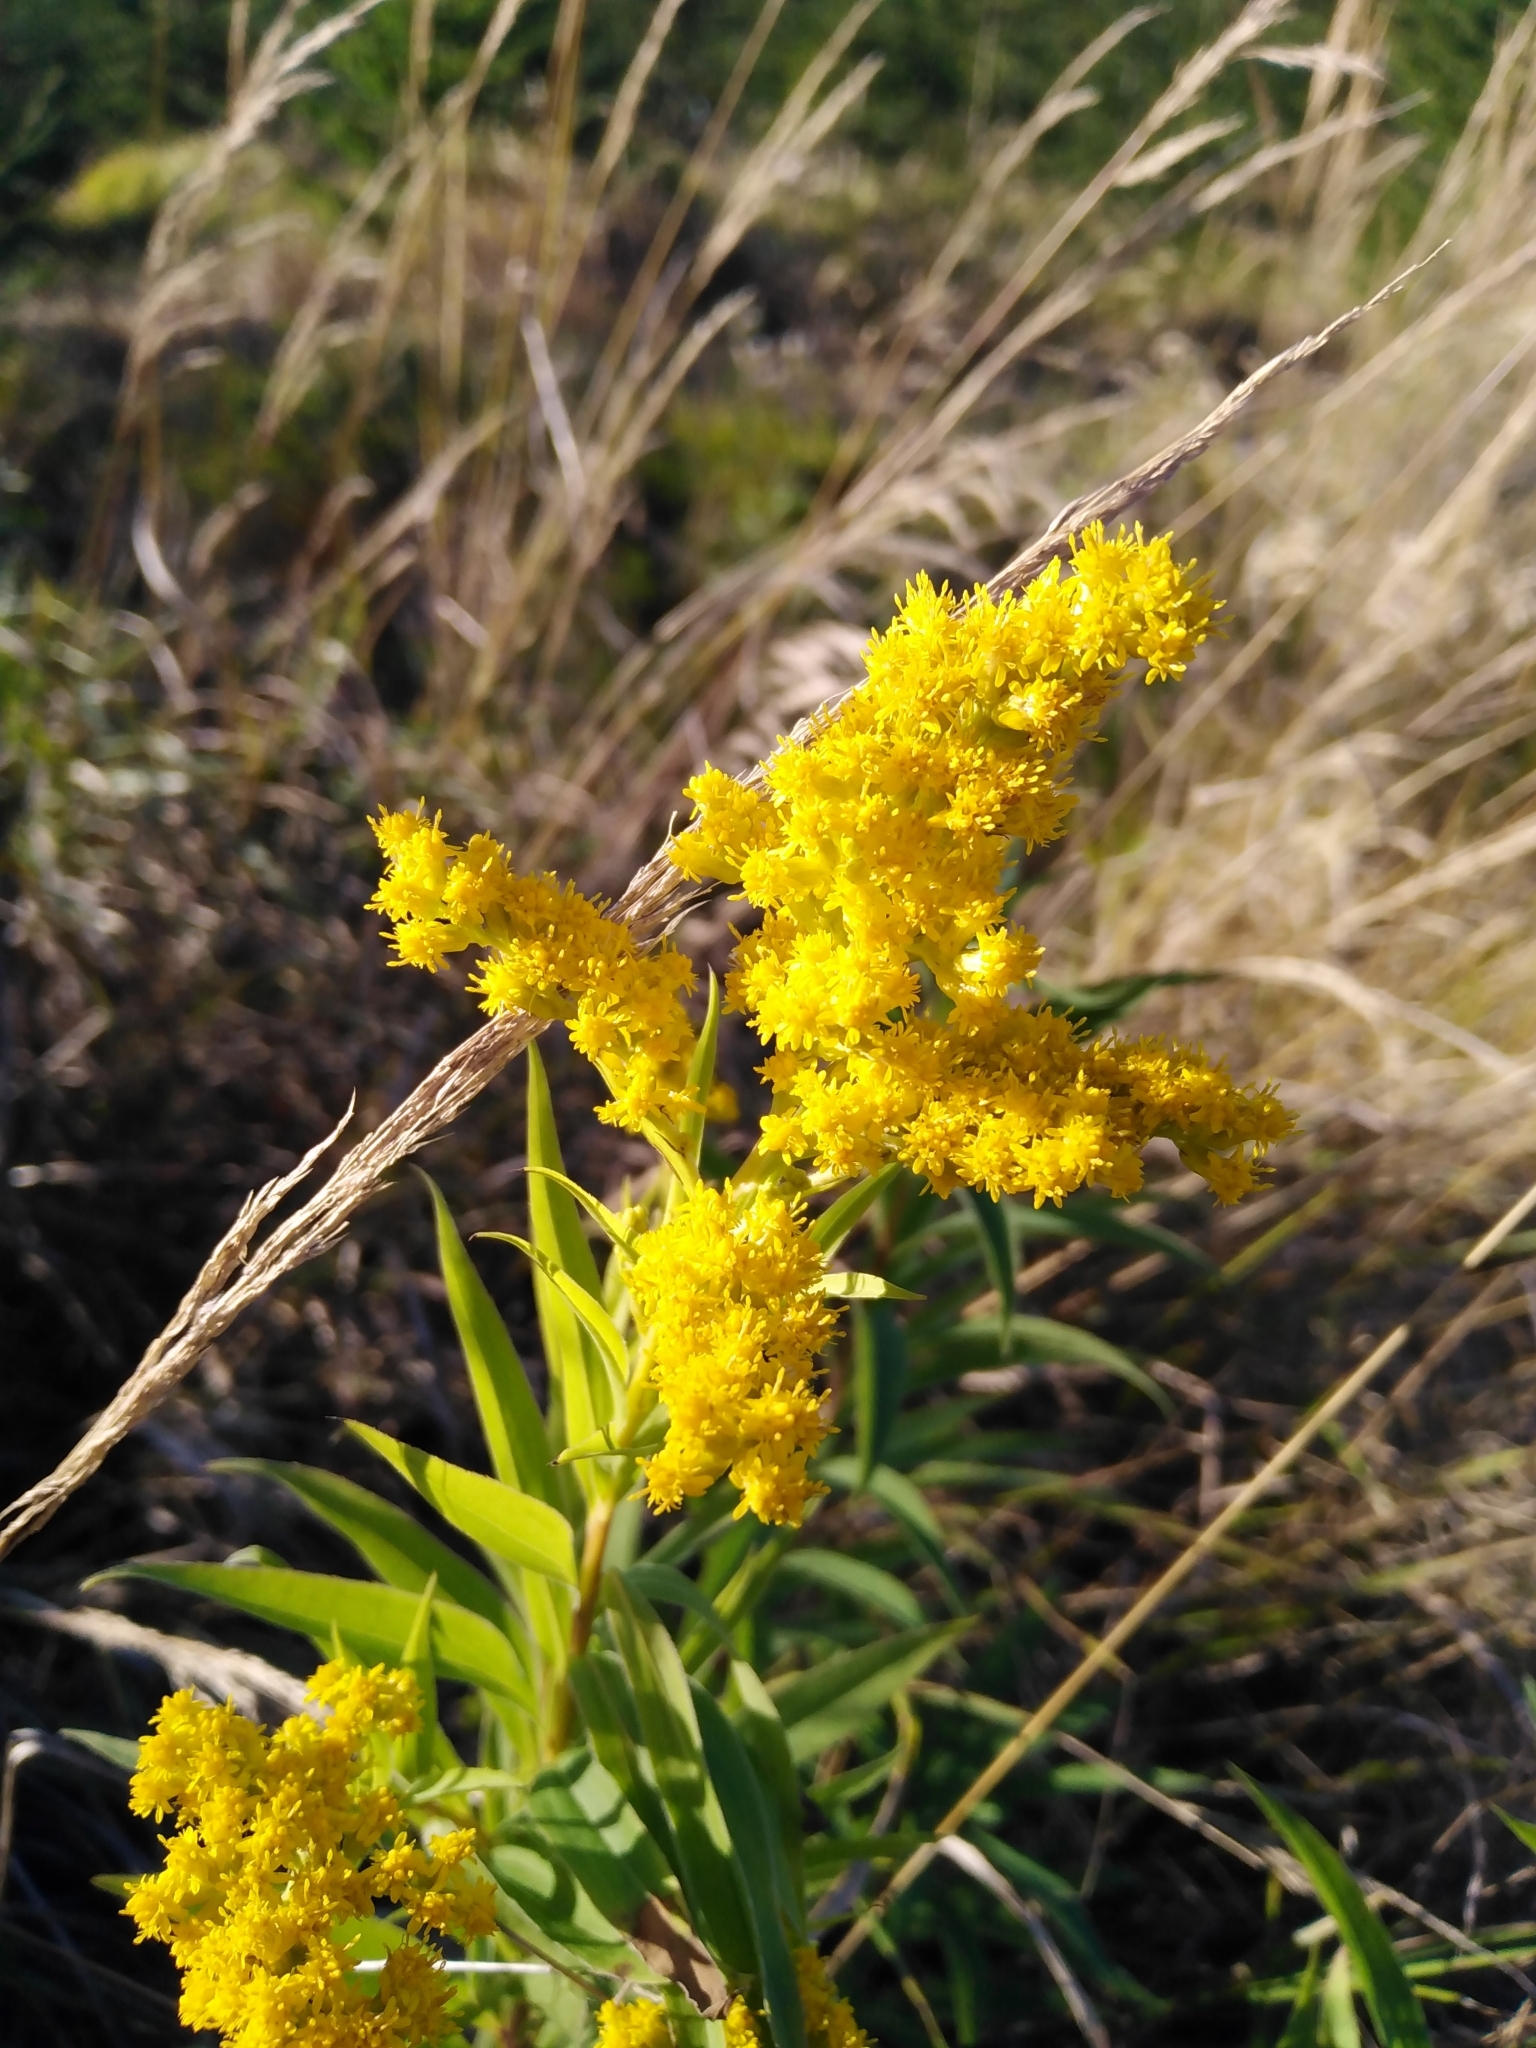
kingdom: Plantae
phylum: Tracheophyta
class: Magnoliopsida
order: Asterales
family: Asteraceae
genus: Solidago
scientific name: Solidago gigantea
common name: Giant goldenrod
